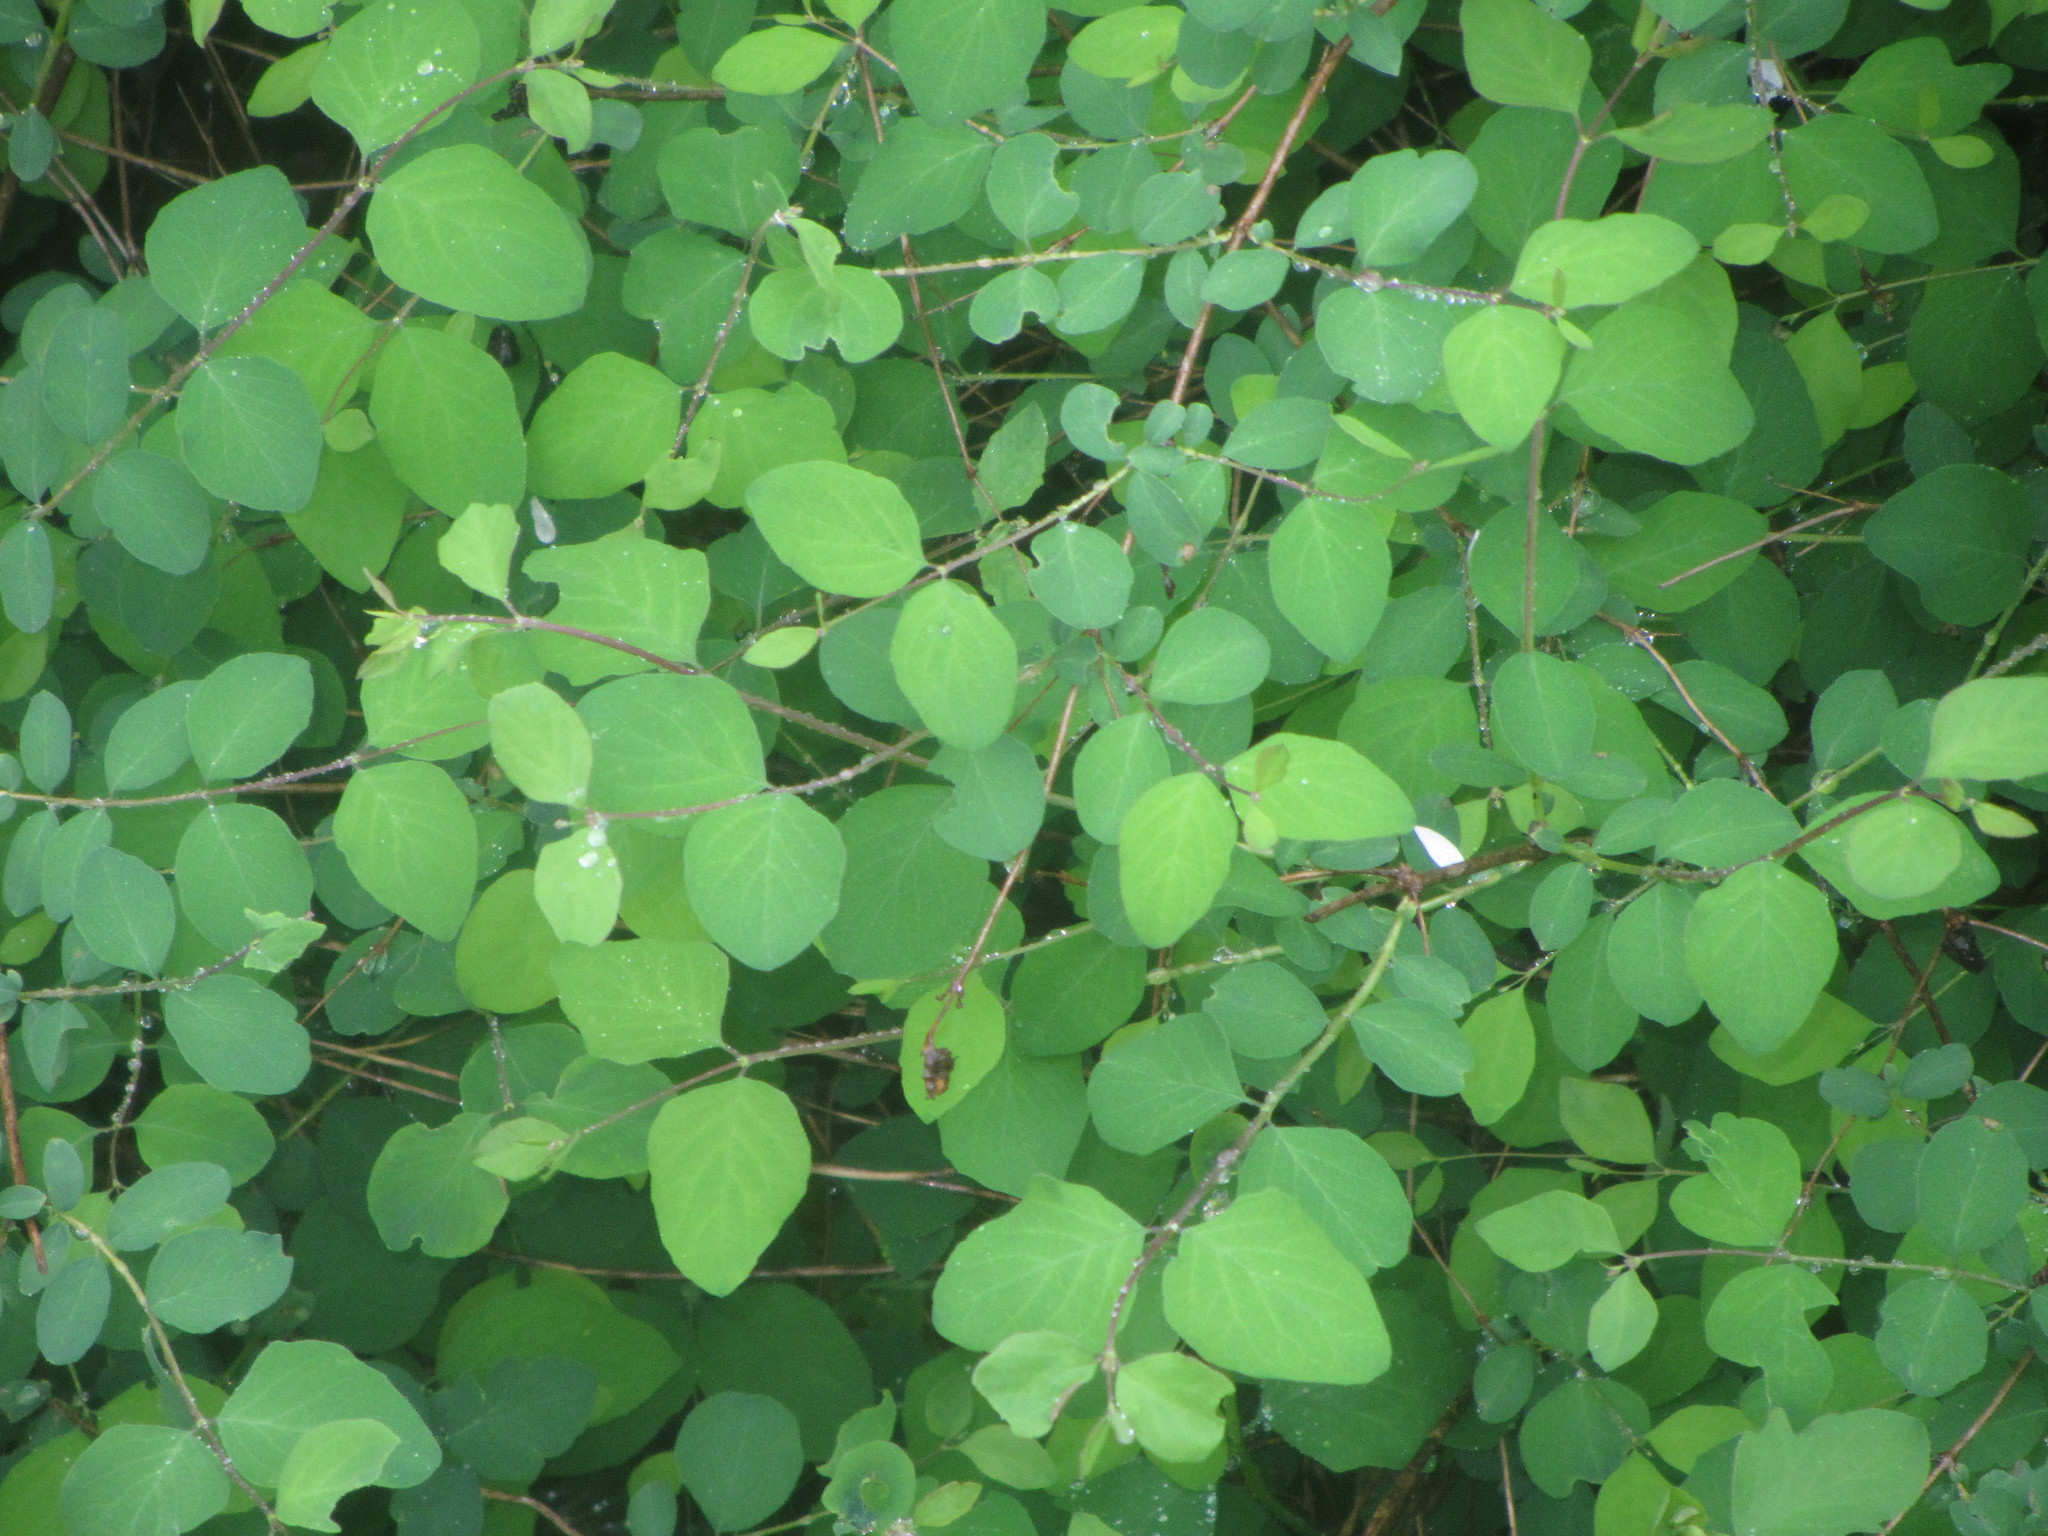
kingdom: Plantae
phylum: Tracheophyta
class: Magnoliopsida
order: Dipsacales
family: Caprifoliaceae
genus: Symphoricarpos
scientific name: Symphoricarpos albus
